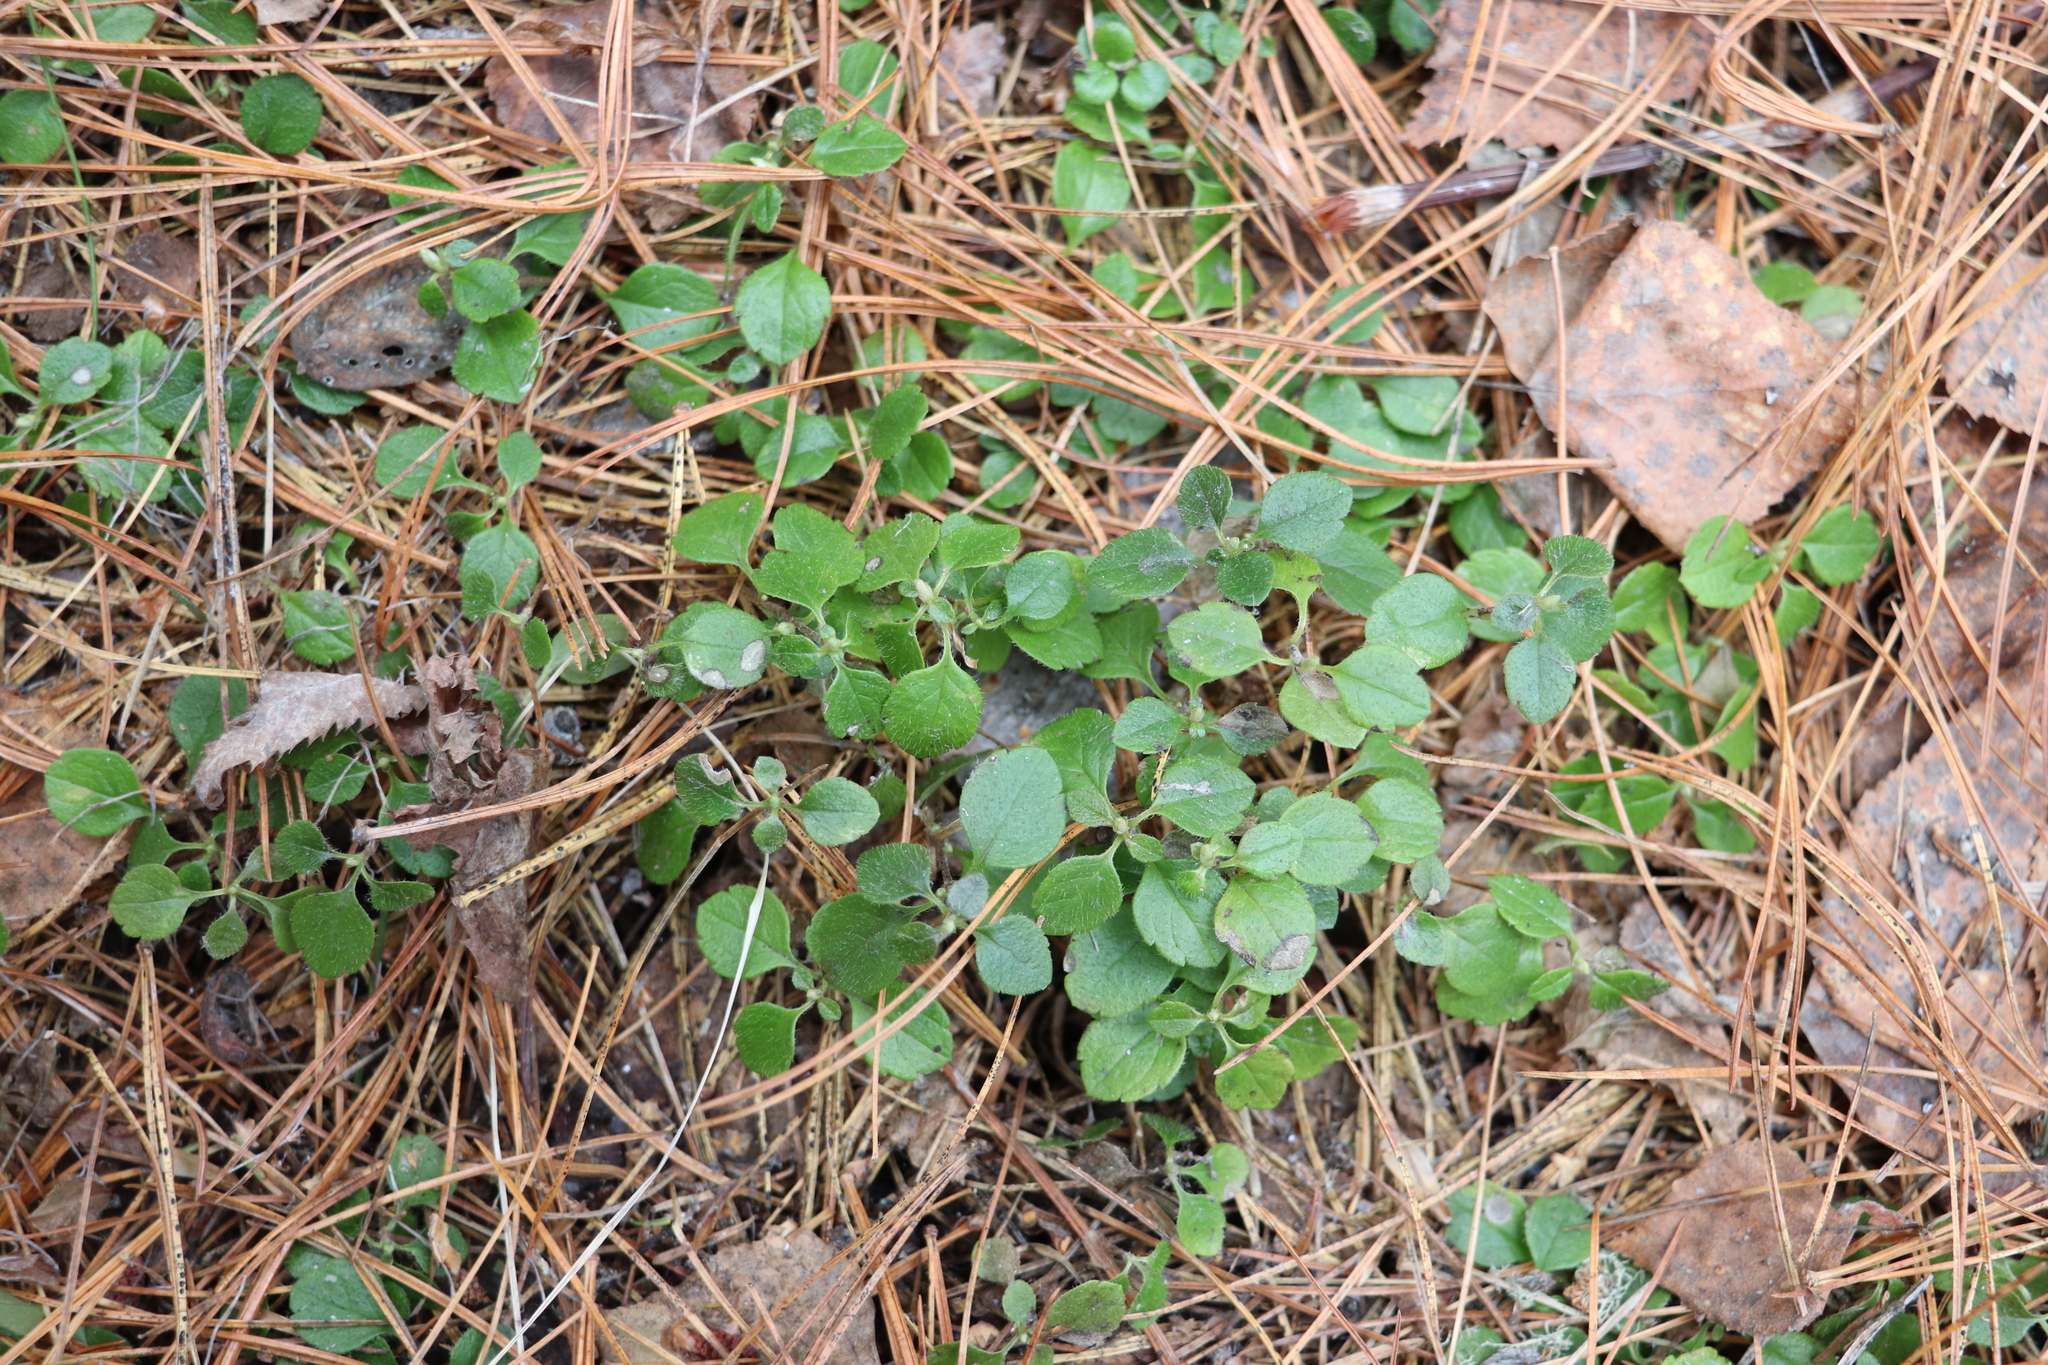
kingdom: Plantae
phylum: Tracheophyta
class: Magnoliopsida
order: Dipsacales
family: Caprifoliaceae
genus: Linnaea
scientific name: Linnaea borealis
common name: Twinflower
